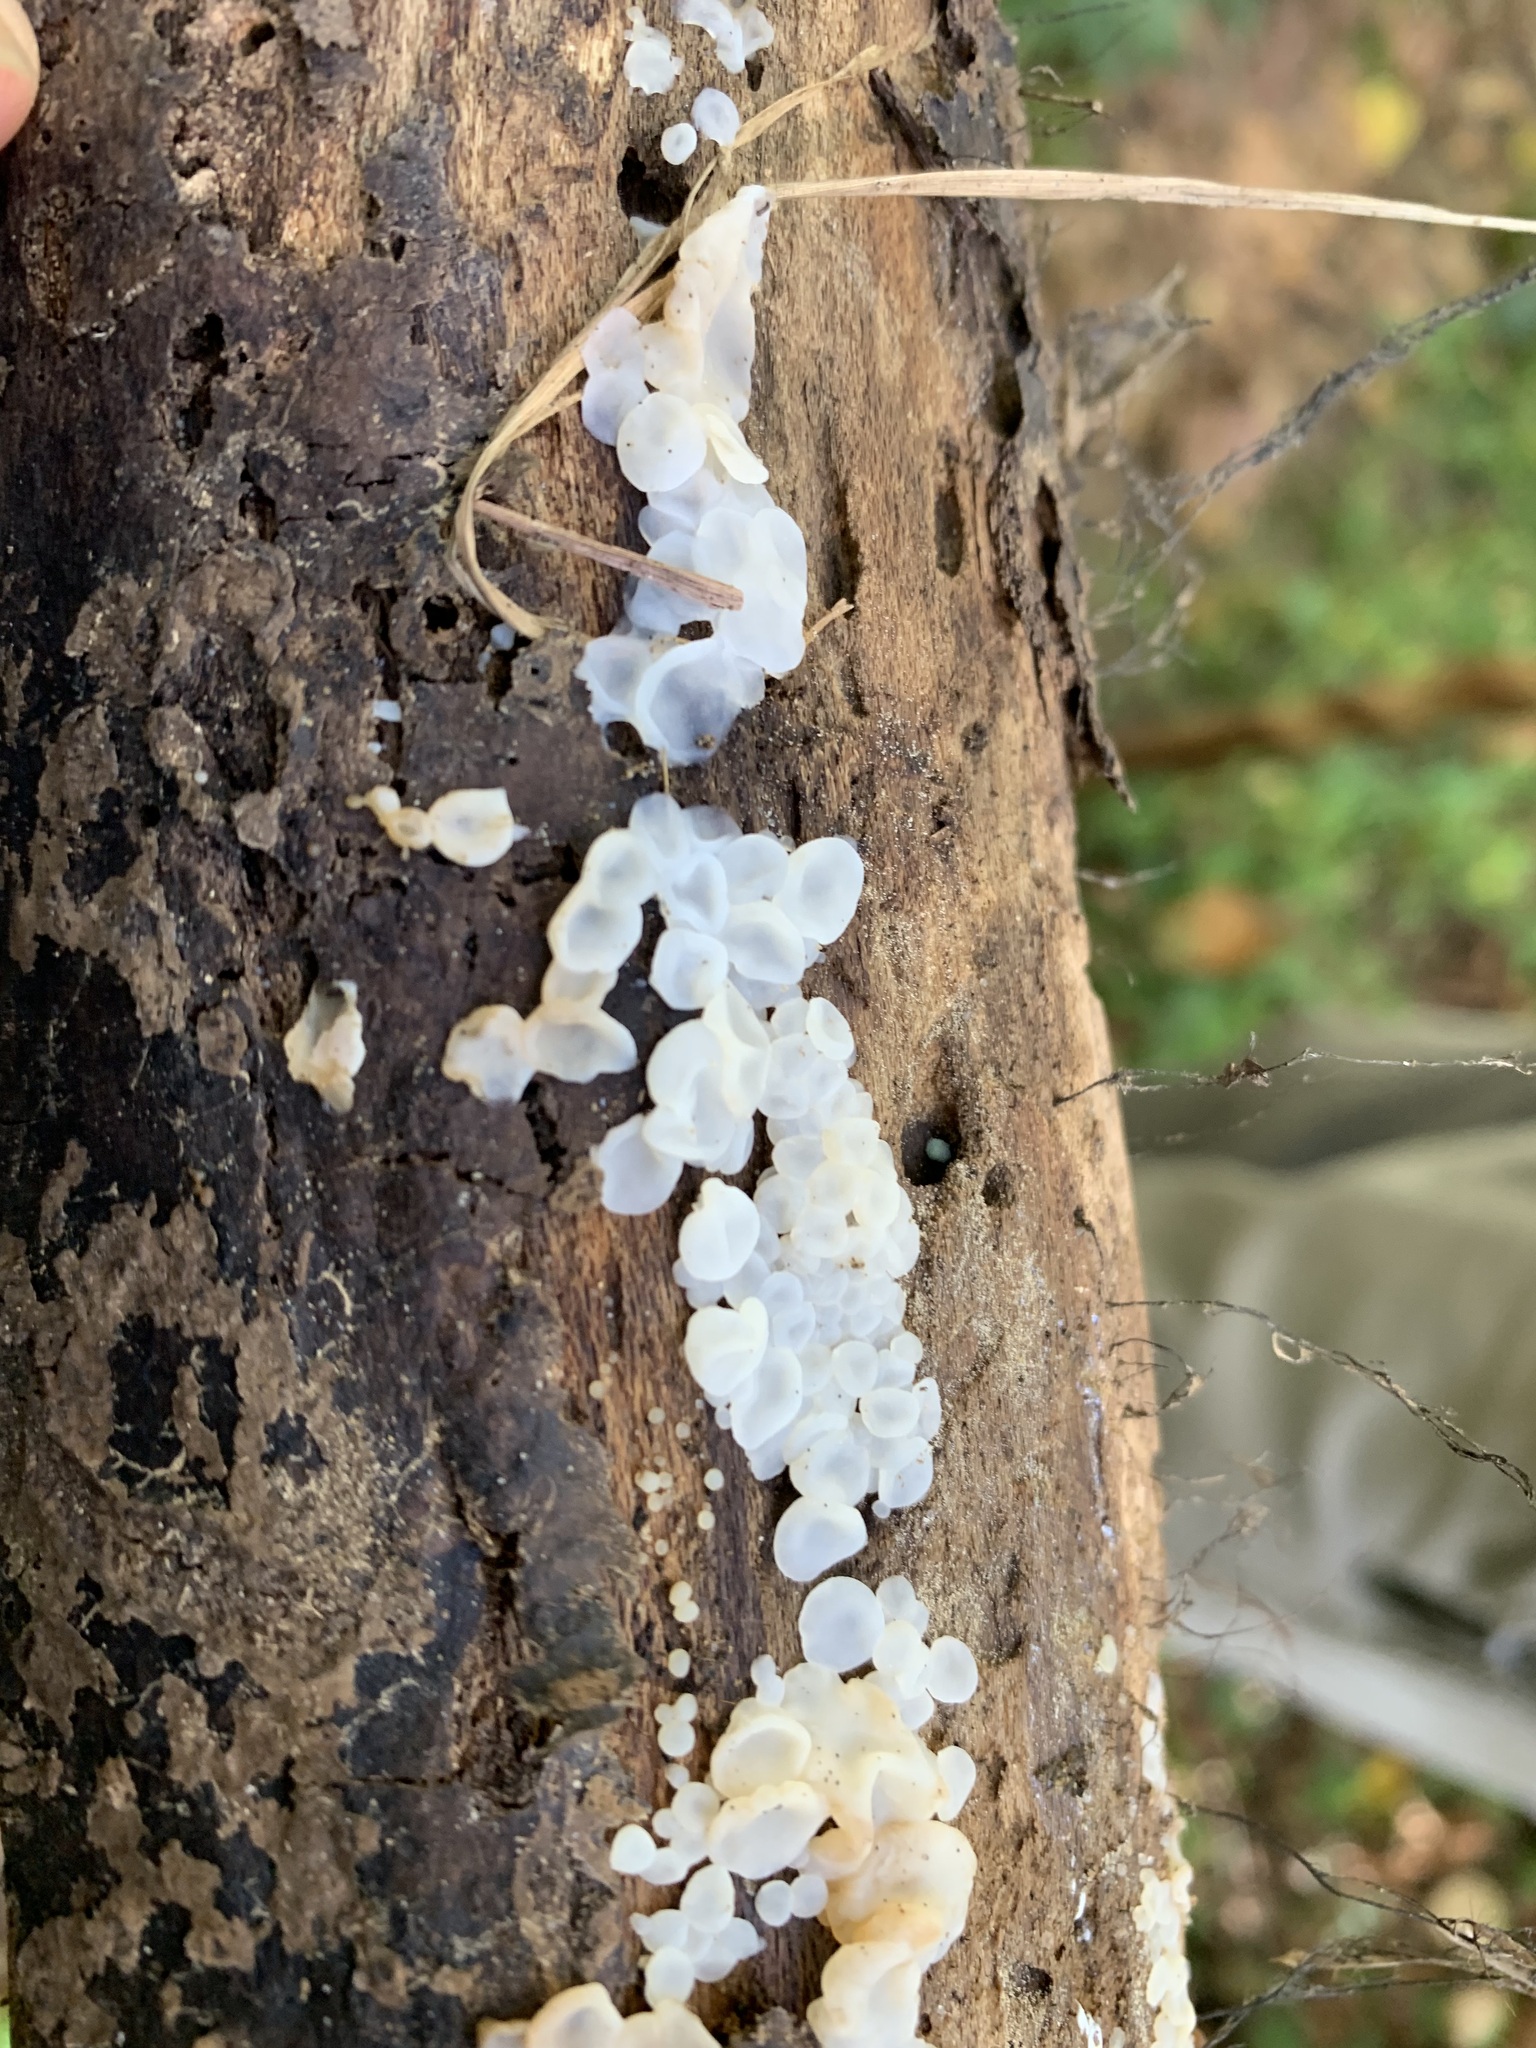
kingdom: Fungi
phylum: Basidiomycota
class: Agaricomycetes
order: Auriculariales
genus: Ductifera
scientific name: Ductifera pululahuana
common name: White jelly fungus
